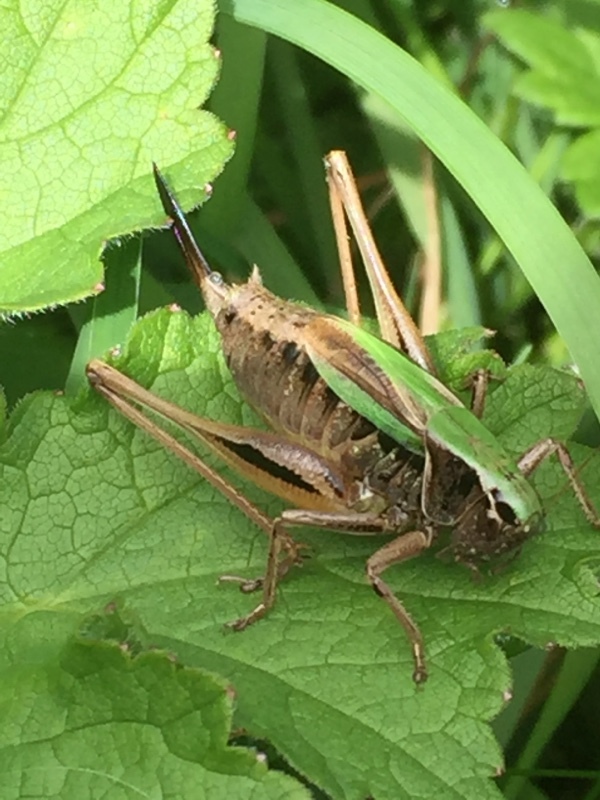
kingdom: Animalia
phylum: Arthropoda
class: Insecta
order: Orthoptera
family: Tettigoniidae
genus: Metrioptera
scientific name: Metrioptera brachyptera
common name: Bog bush-cricket
